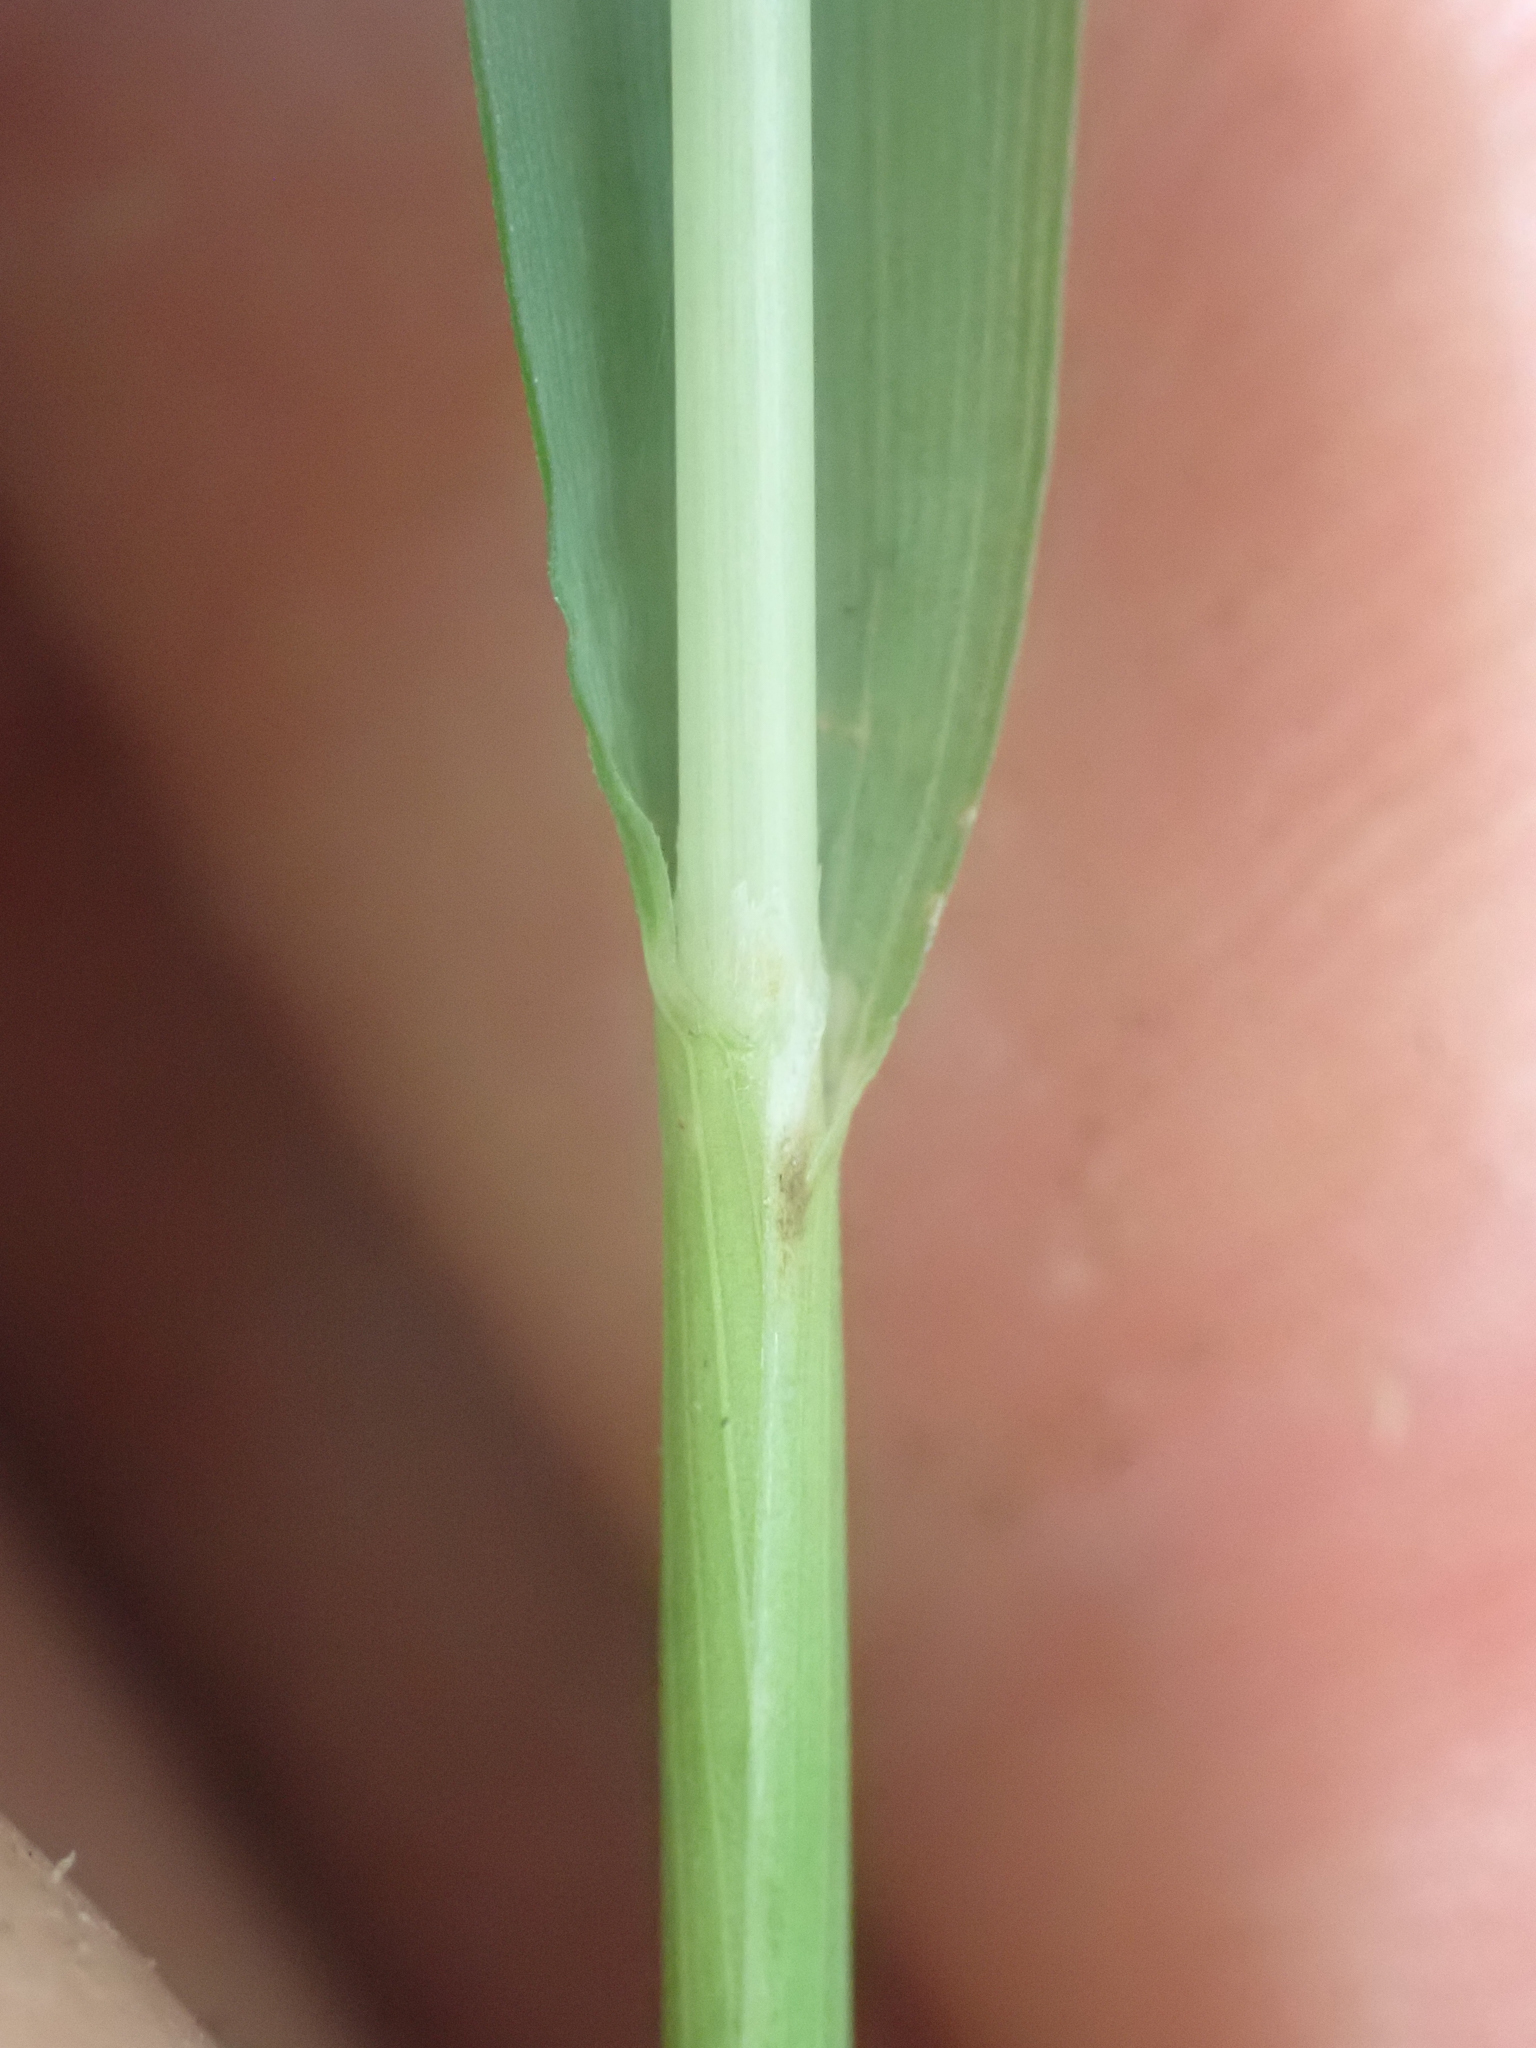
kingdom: Plantae
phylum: Tracheophyta
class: Liliopsida
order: Poales
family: Poaceae
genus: Anthoxanthum
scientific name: Anthoxanthum occidentale
